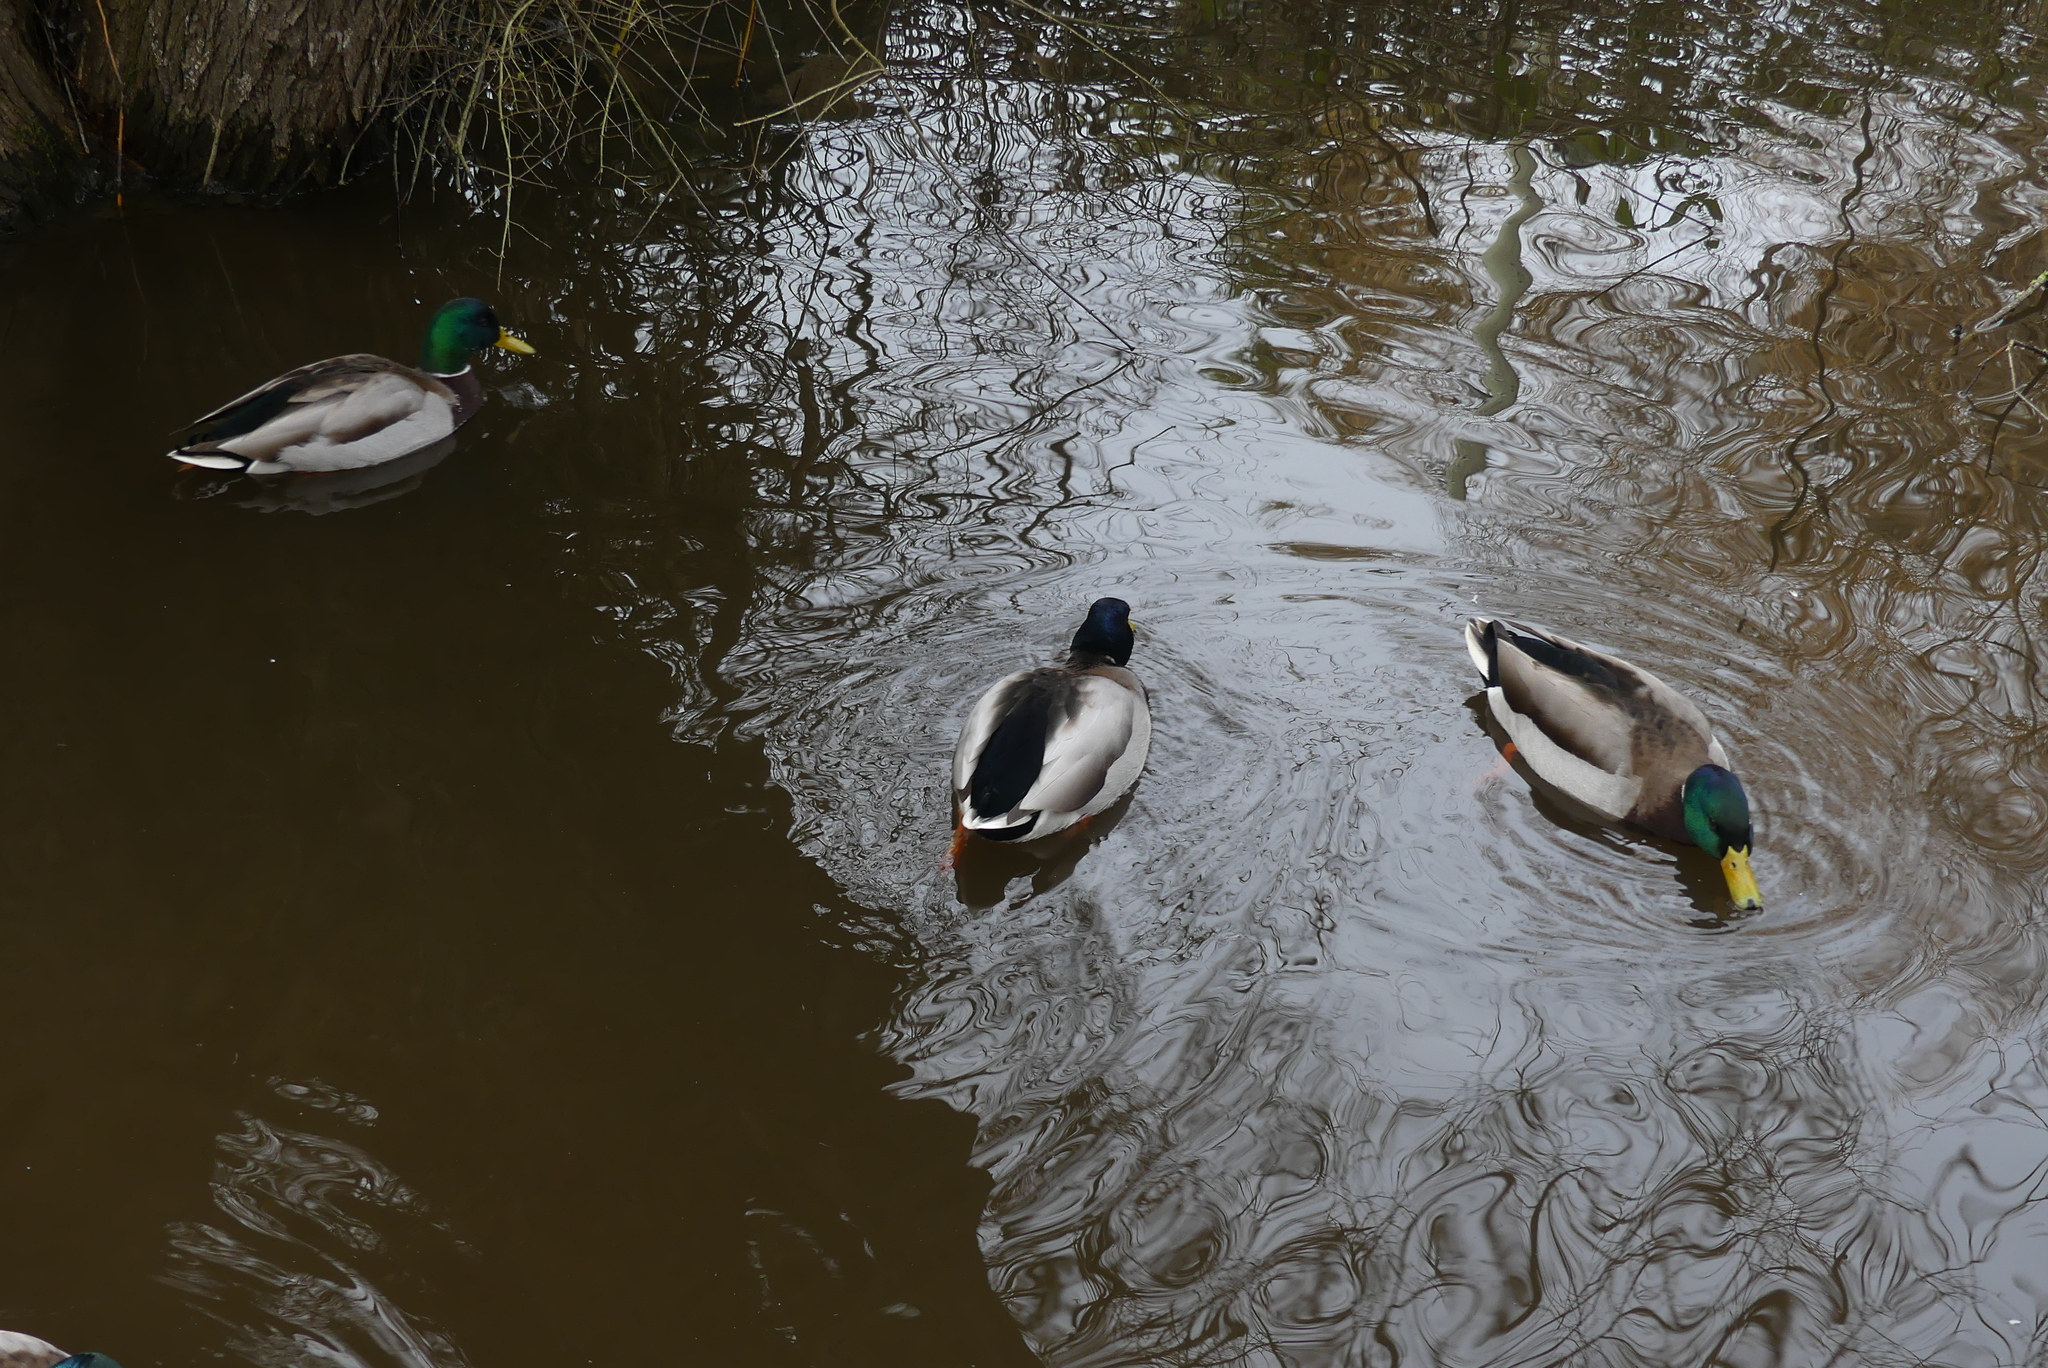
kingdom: Animalia
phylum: Chordata
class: Aves
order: Anseriformes
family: Anatidae
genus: Anas
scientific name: Anas platyrhynchos
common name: Mallard
